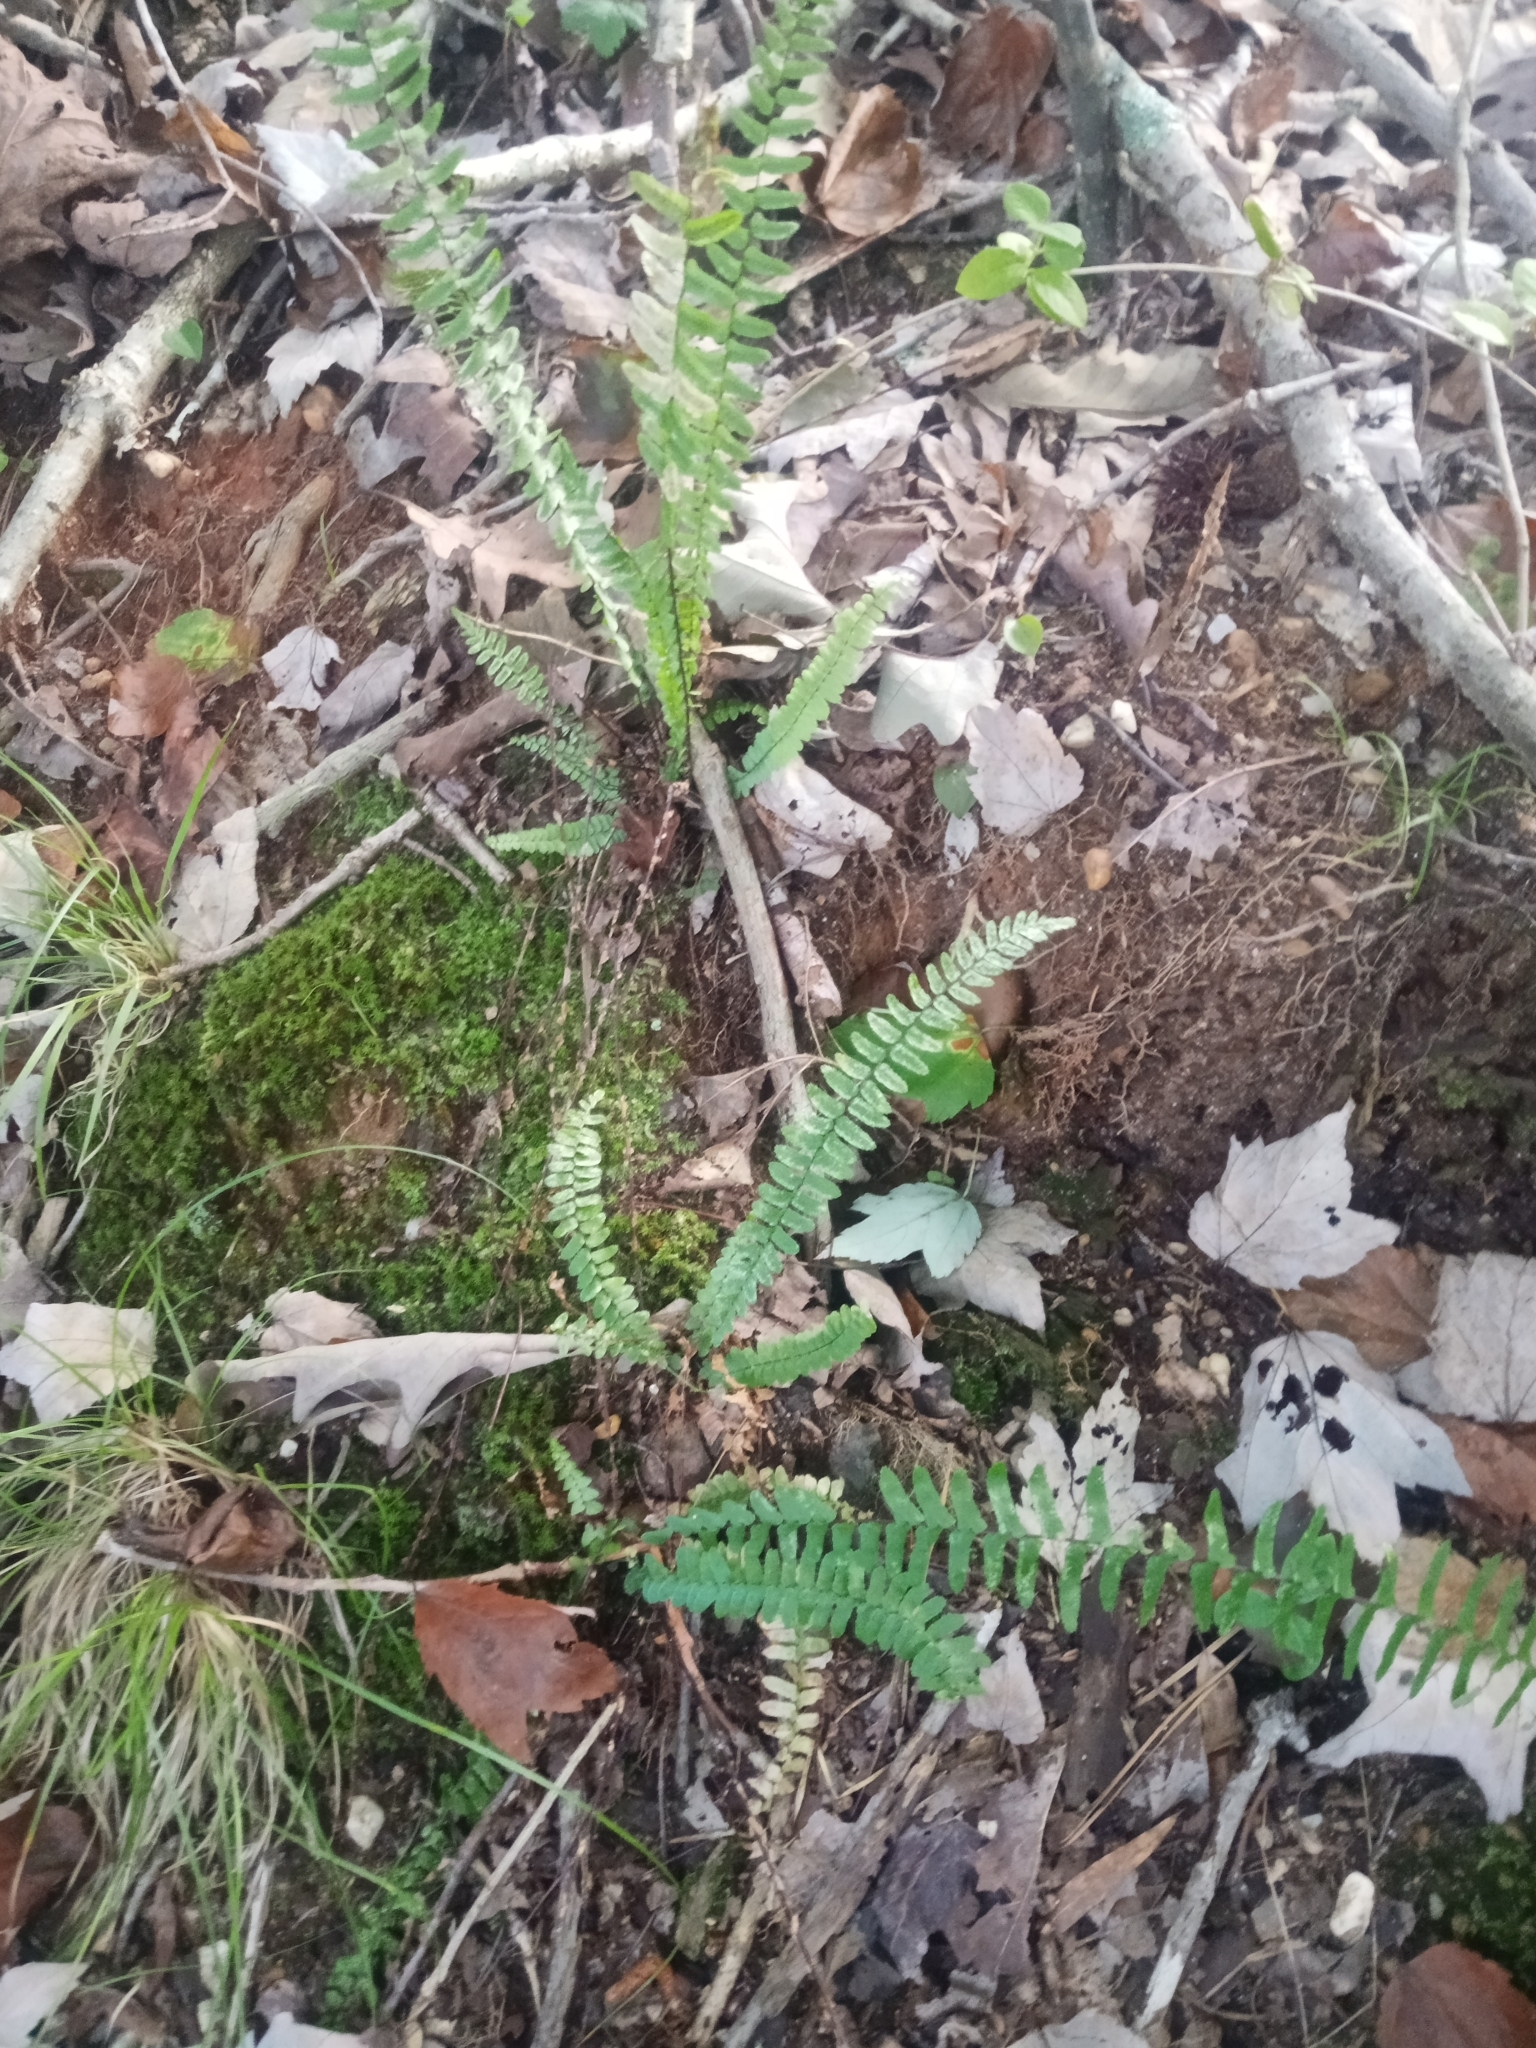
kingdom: Plantae
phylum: Tracheophyta
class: Polypodiopsida
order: Polypodiales
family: Aspleniaceae
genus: Asplenium
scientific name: Asplenium platyneuron
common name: Ebony spleenwort
